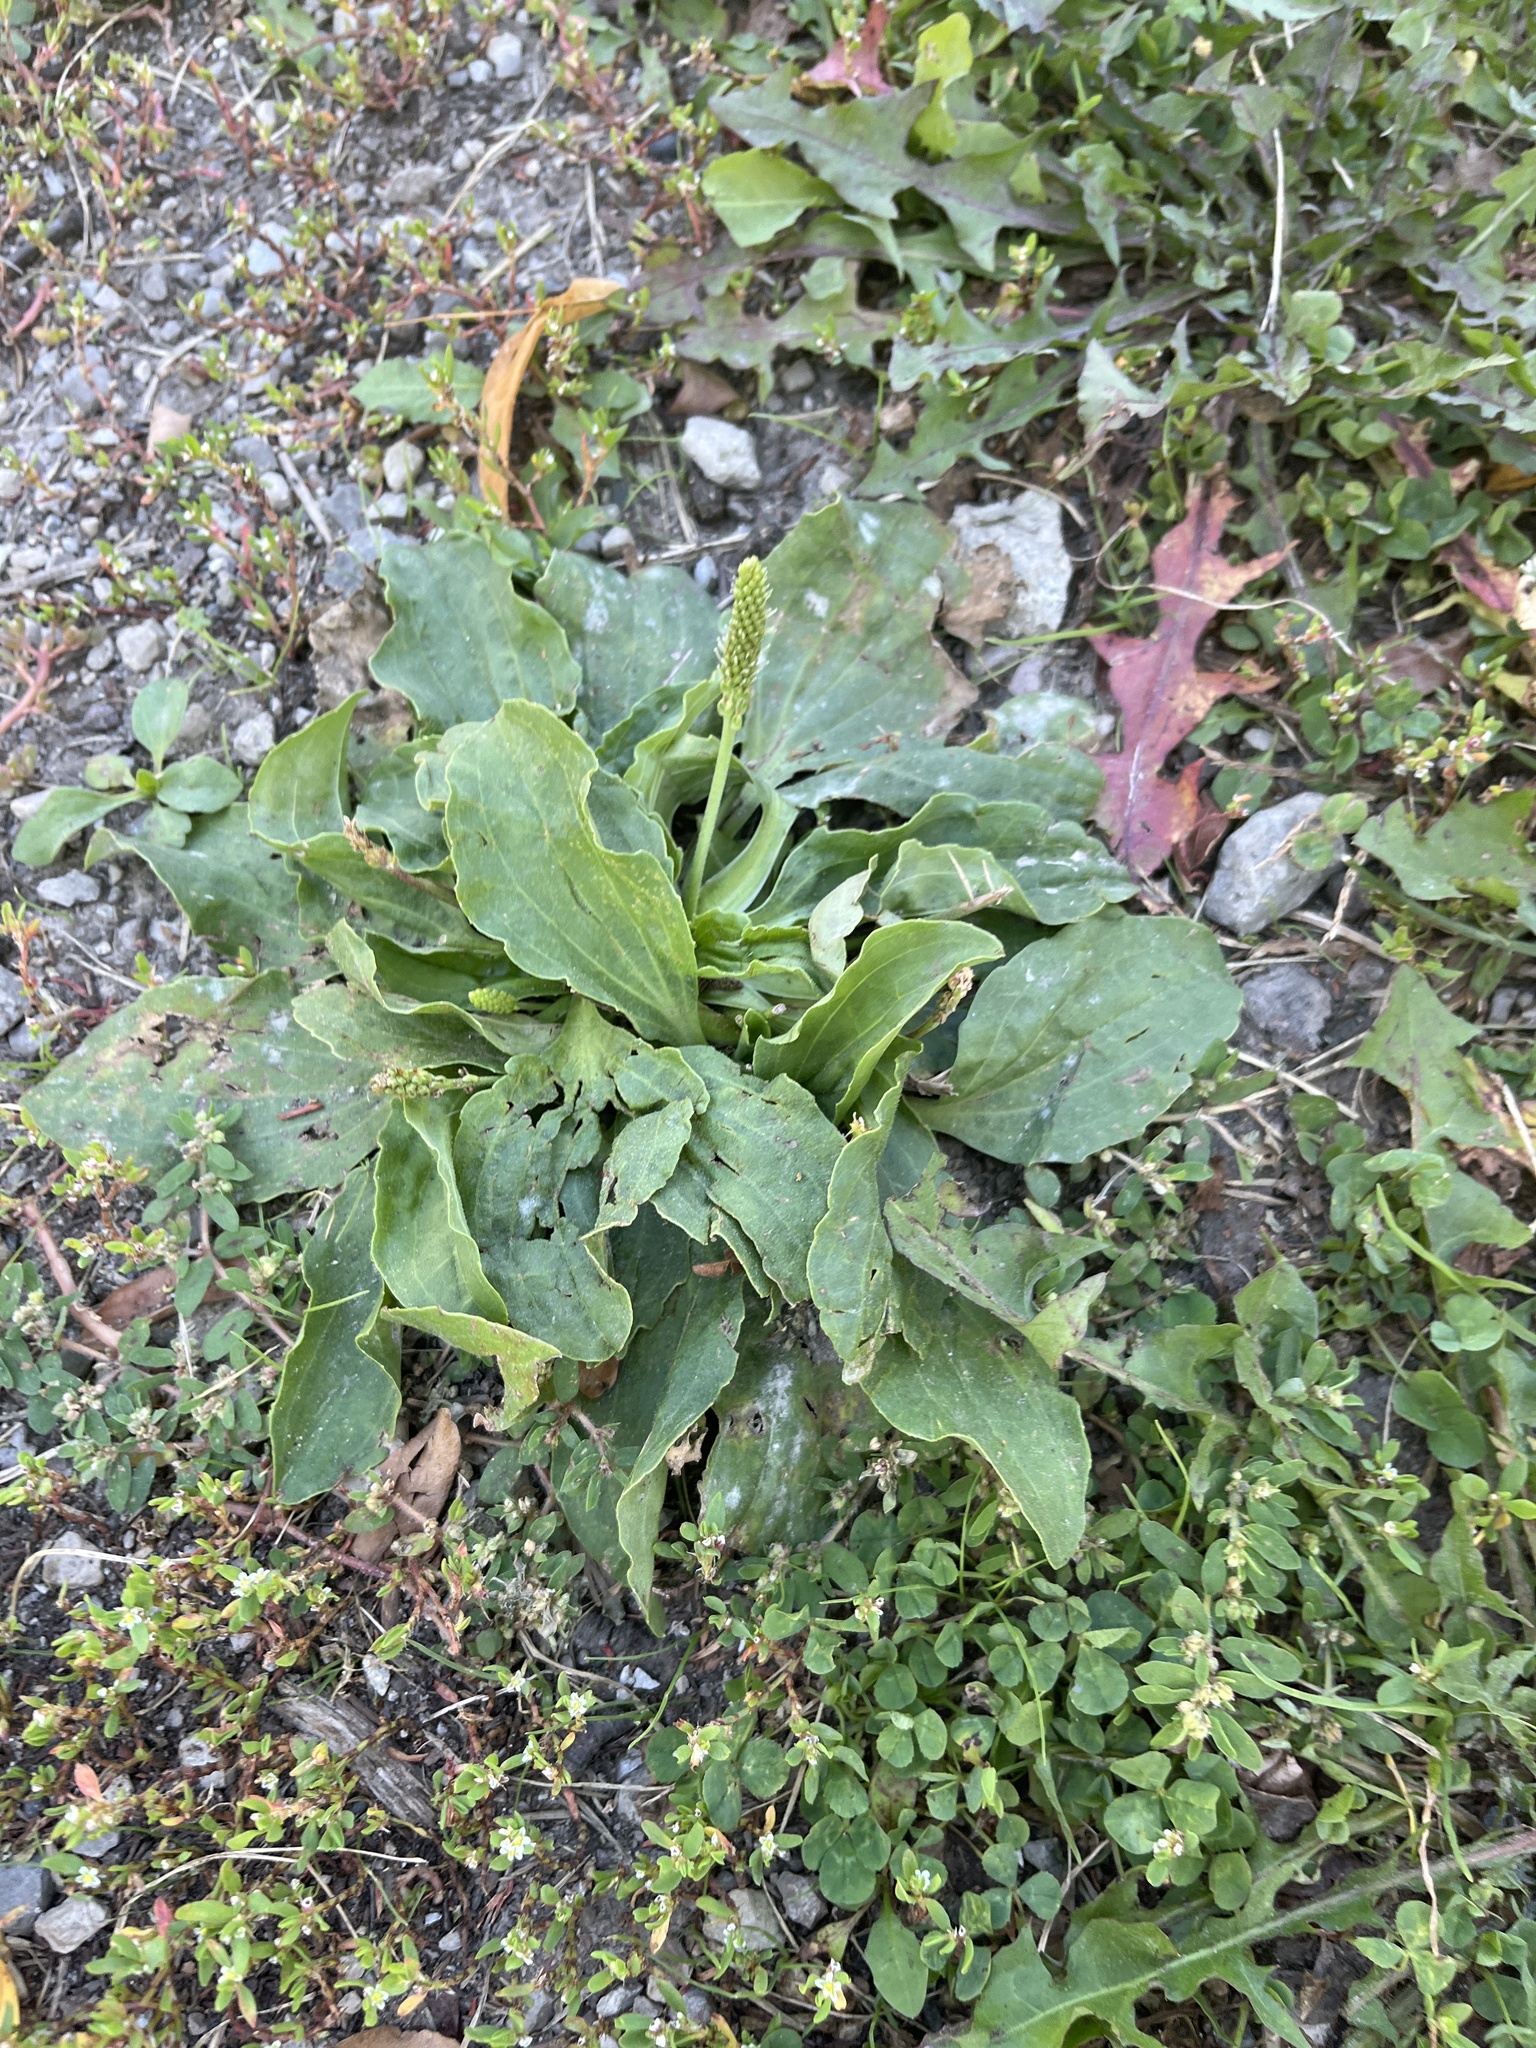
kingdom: Plantae
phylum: Tracheophyta
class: Magnoliopsida
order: Lamiales
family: Plantaginaceae
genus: Plantago
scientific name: Plantago major
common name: Common plantain
